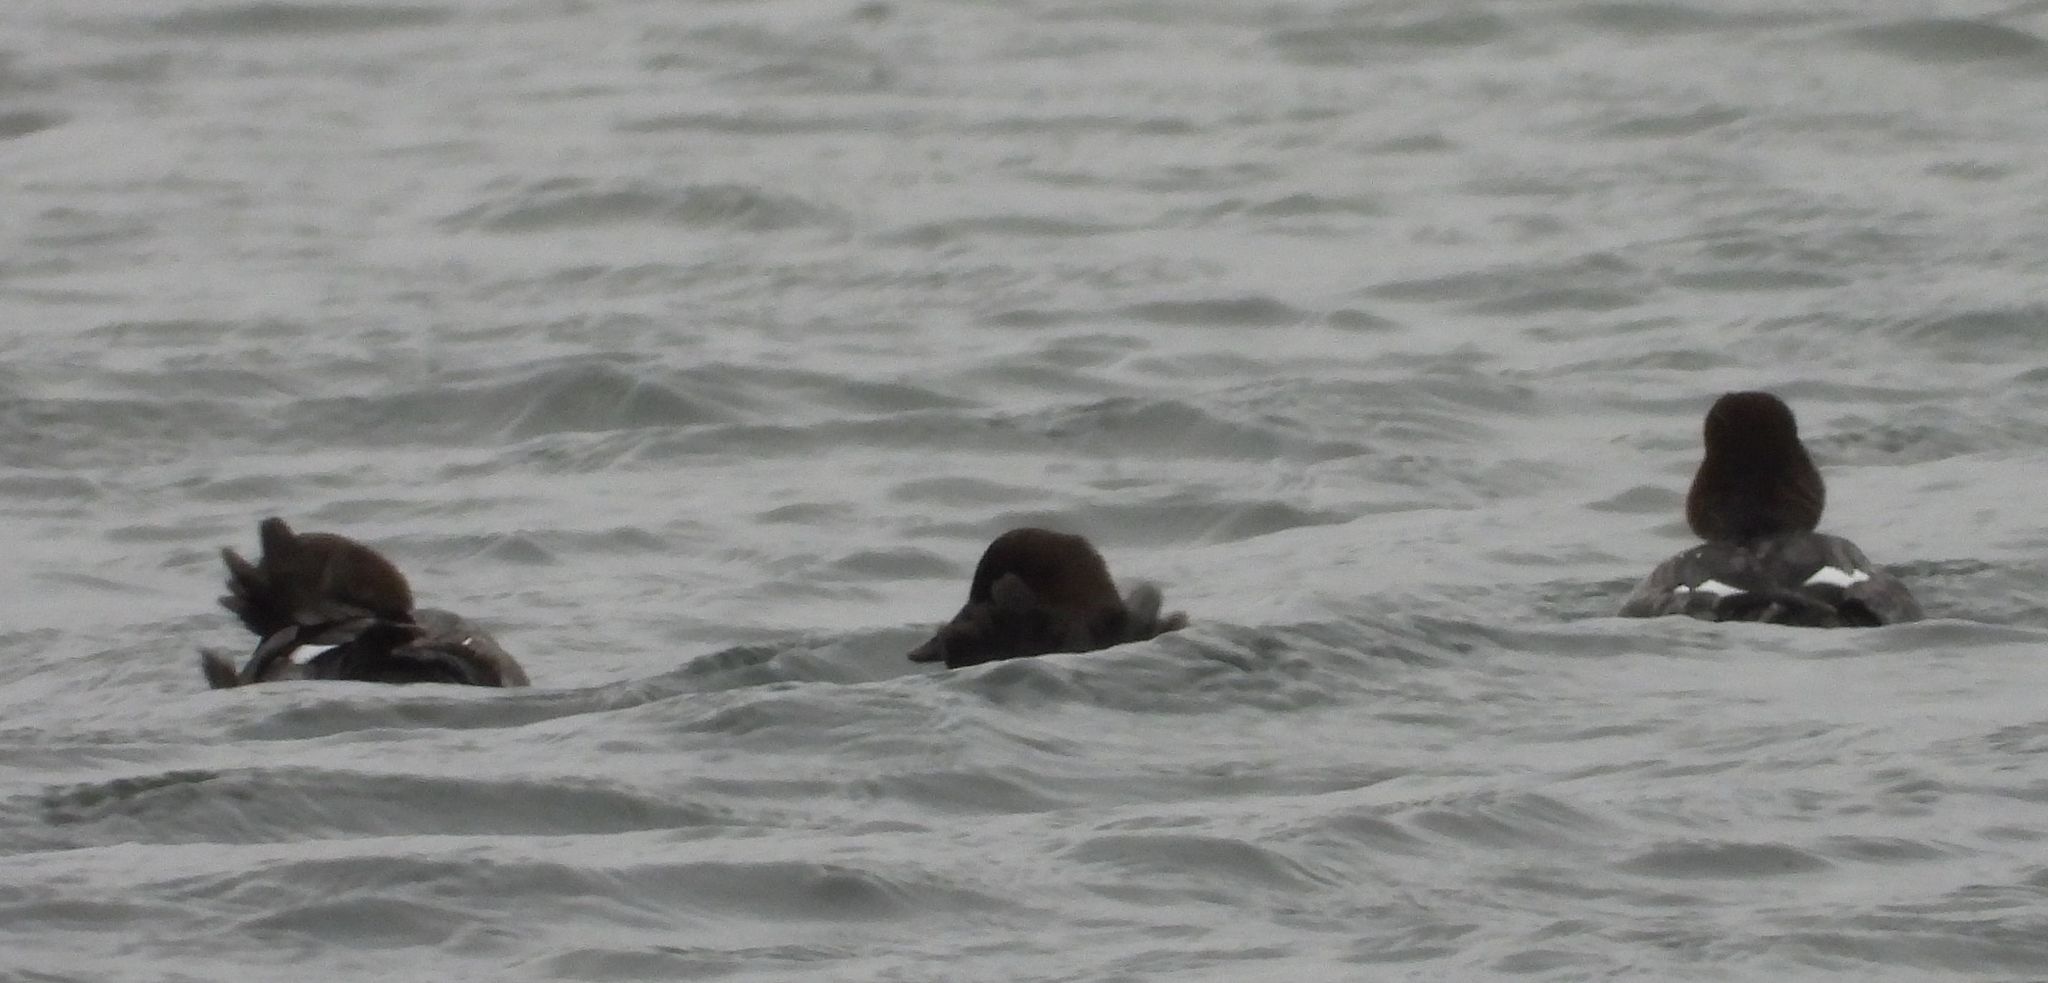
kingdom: Animalia
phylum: Chordata
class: Aves
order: Anseriformes
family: Anatidae
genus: Bucephala
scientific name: Bucephala clangula
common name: Common goldeneye
